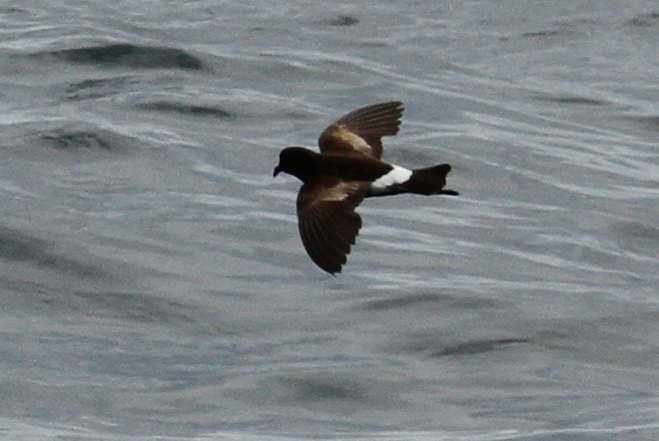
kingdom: Animalia
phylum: Chordata
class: Aves
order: Procellariiformes
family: Hydrobatidae
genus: Oceanites
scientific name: Oceanites oceanicus
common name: Wilson's storm petrel
